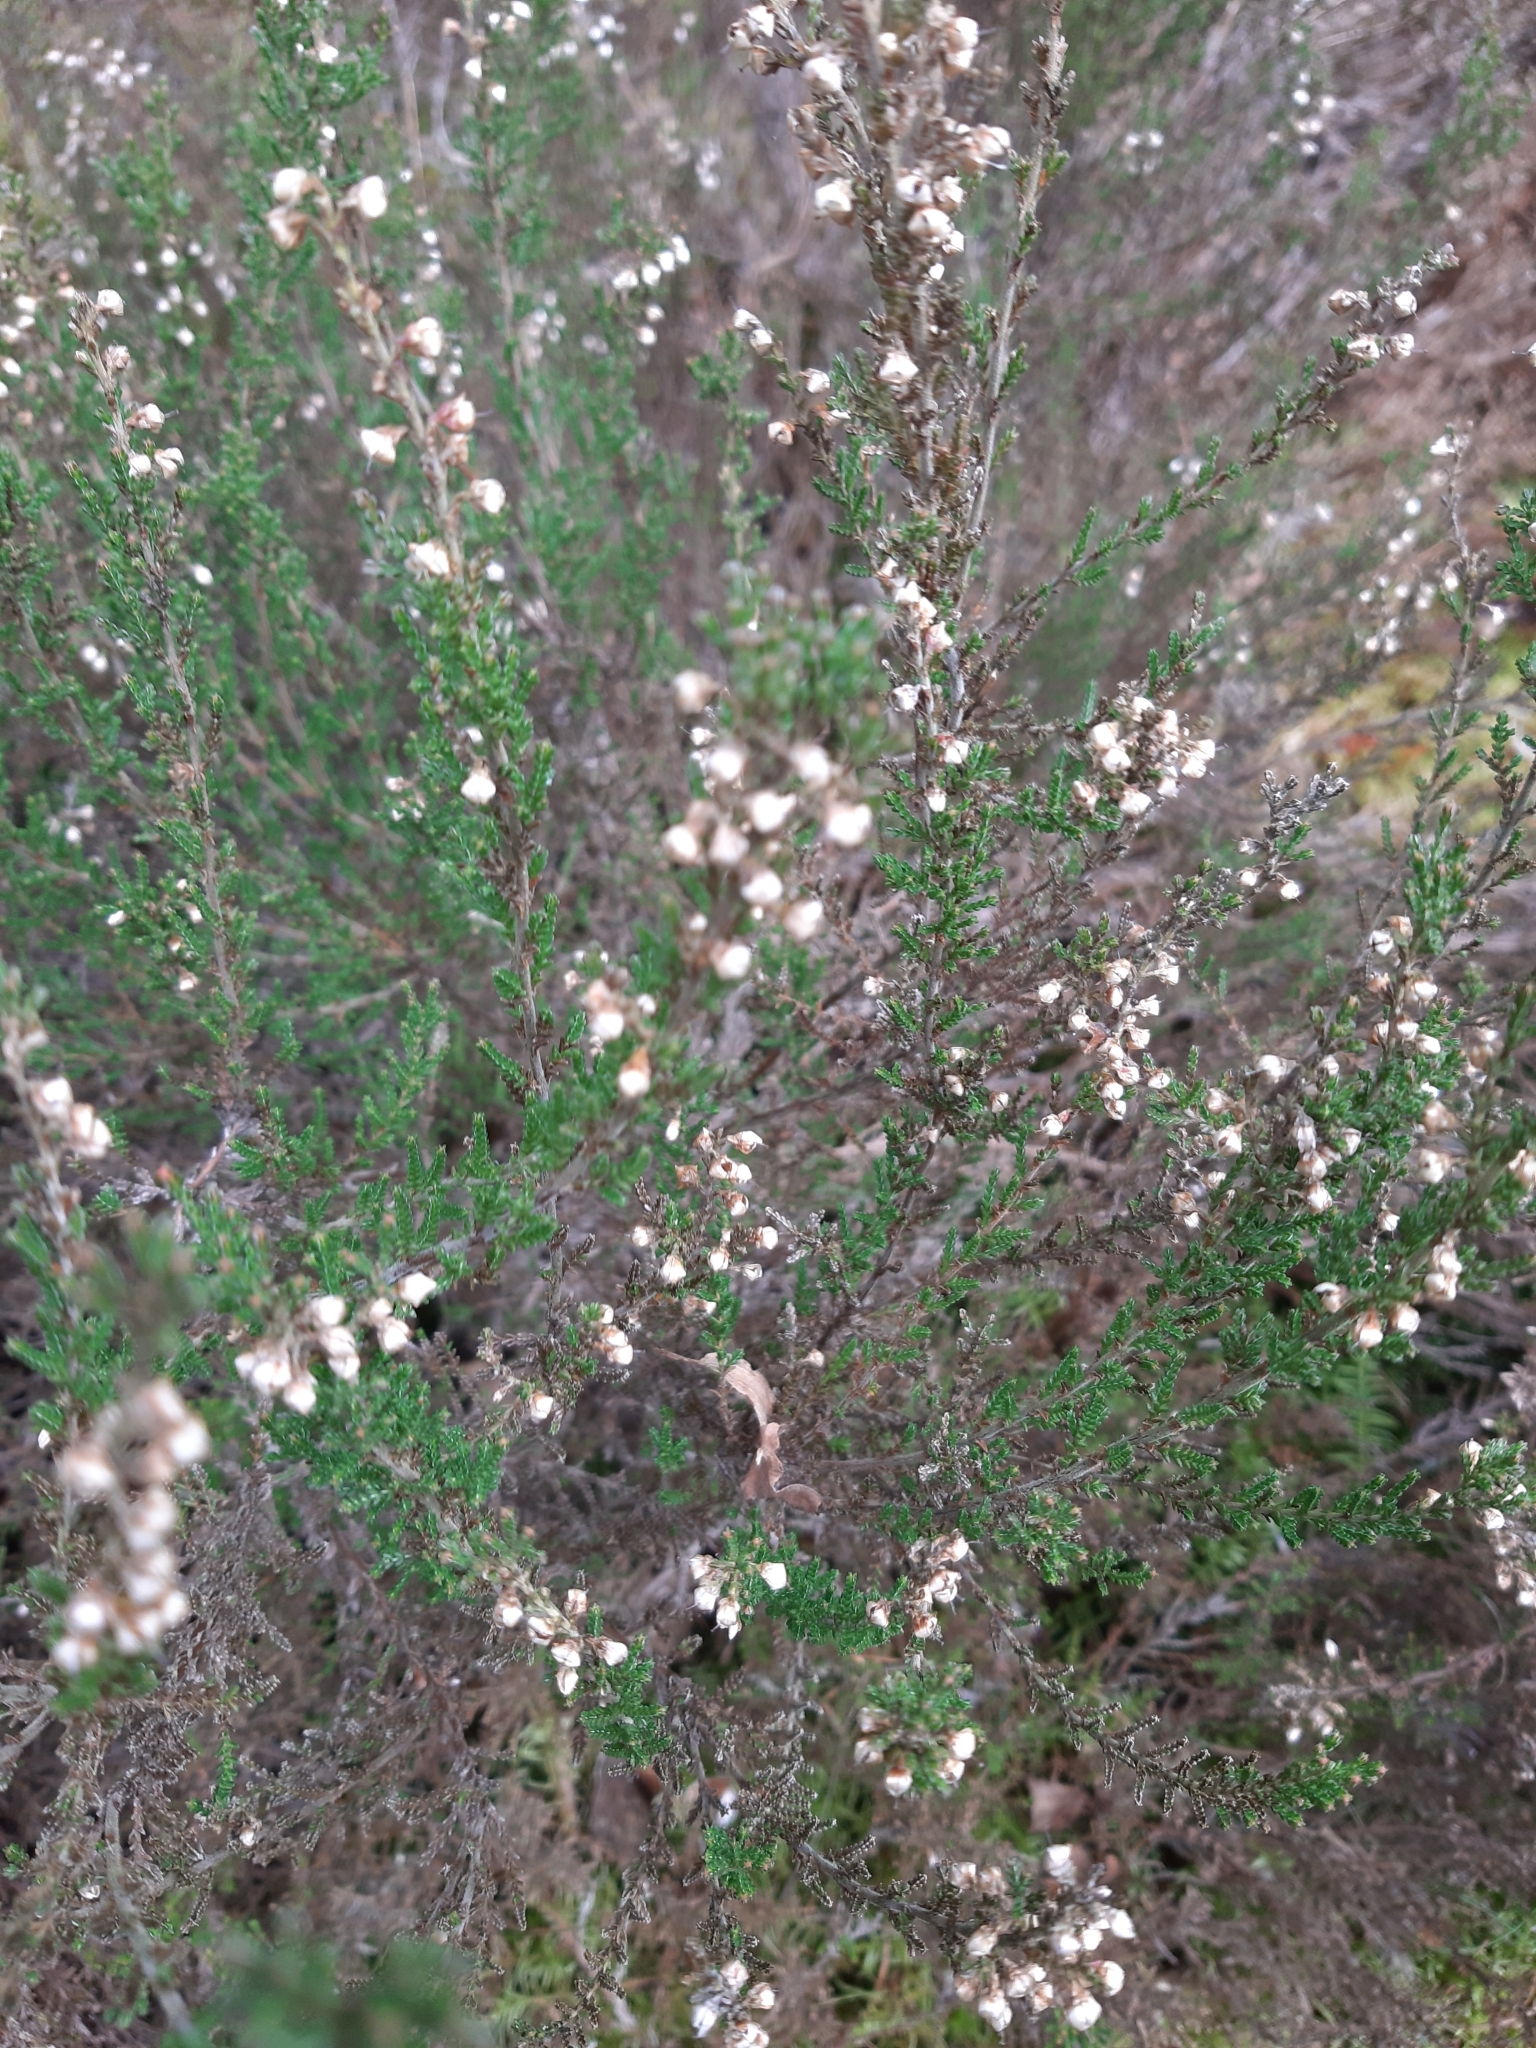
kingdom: Plantae
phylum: Tracheophyta
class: Magnoliopsida
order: Ericales
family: Ericaceae
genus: Calluna
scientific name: Calluna vulgaris
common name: Heather
